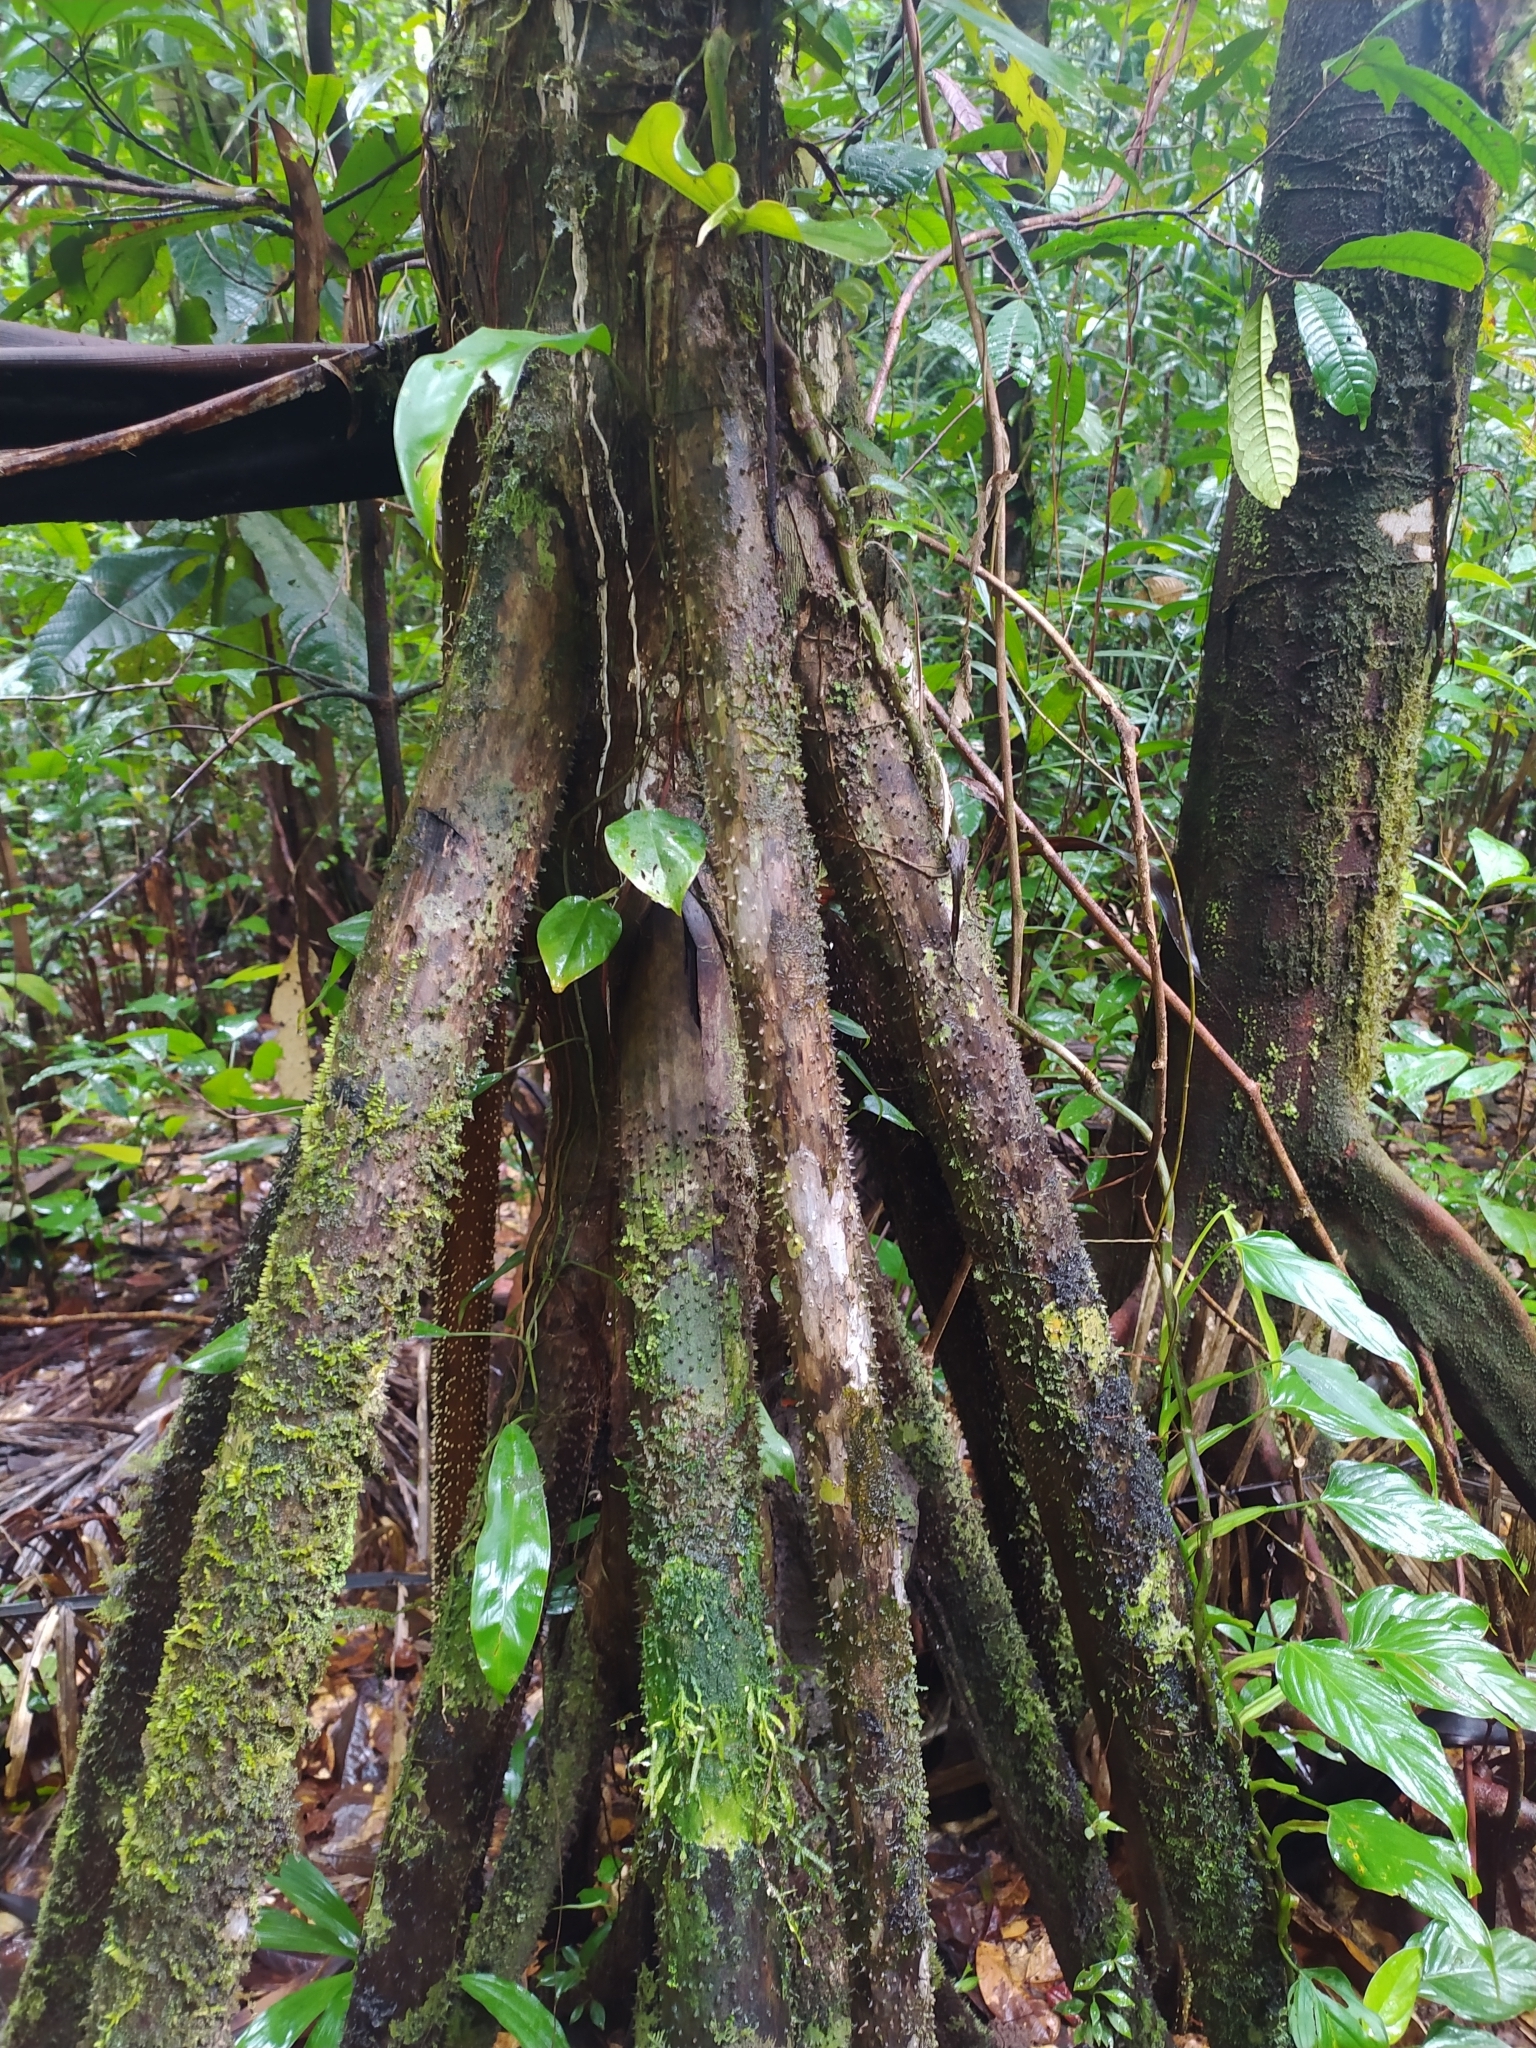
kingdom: Plantae
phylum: Tracheophyta
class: Liliopsida
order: Arecales
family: Arecaceae
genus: Socratea
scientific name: Socratea exorrhiza
